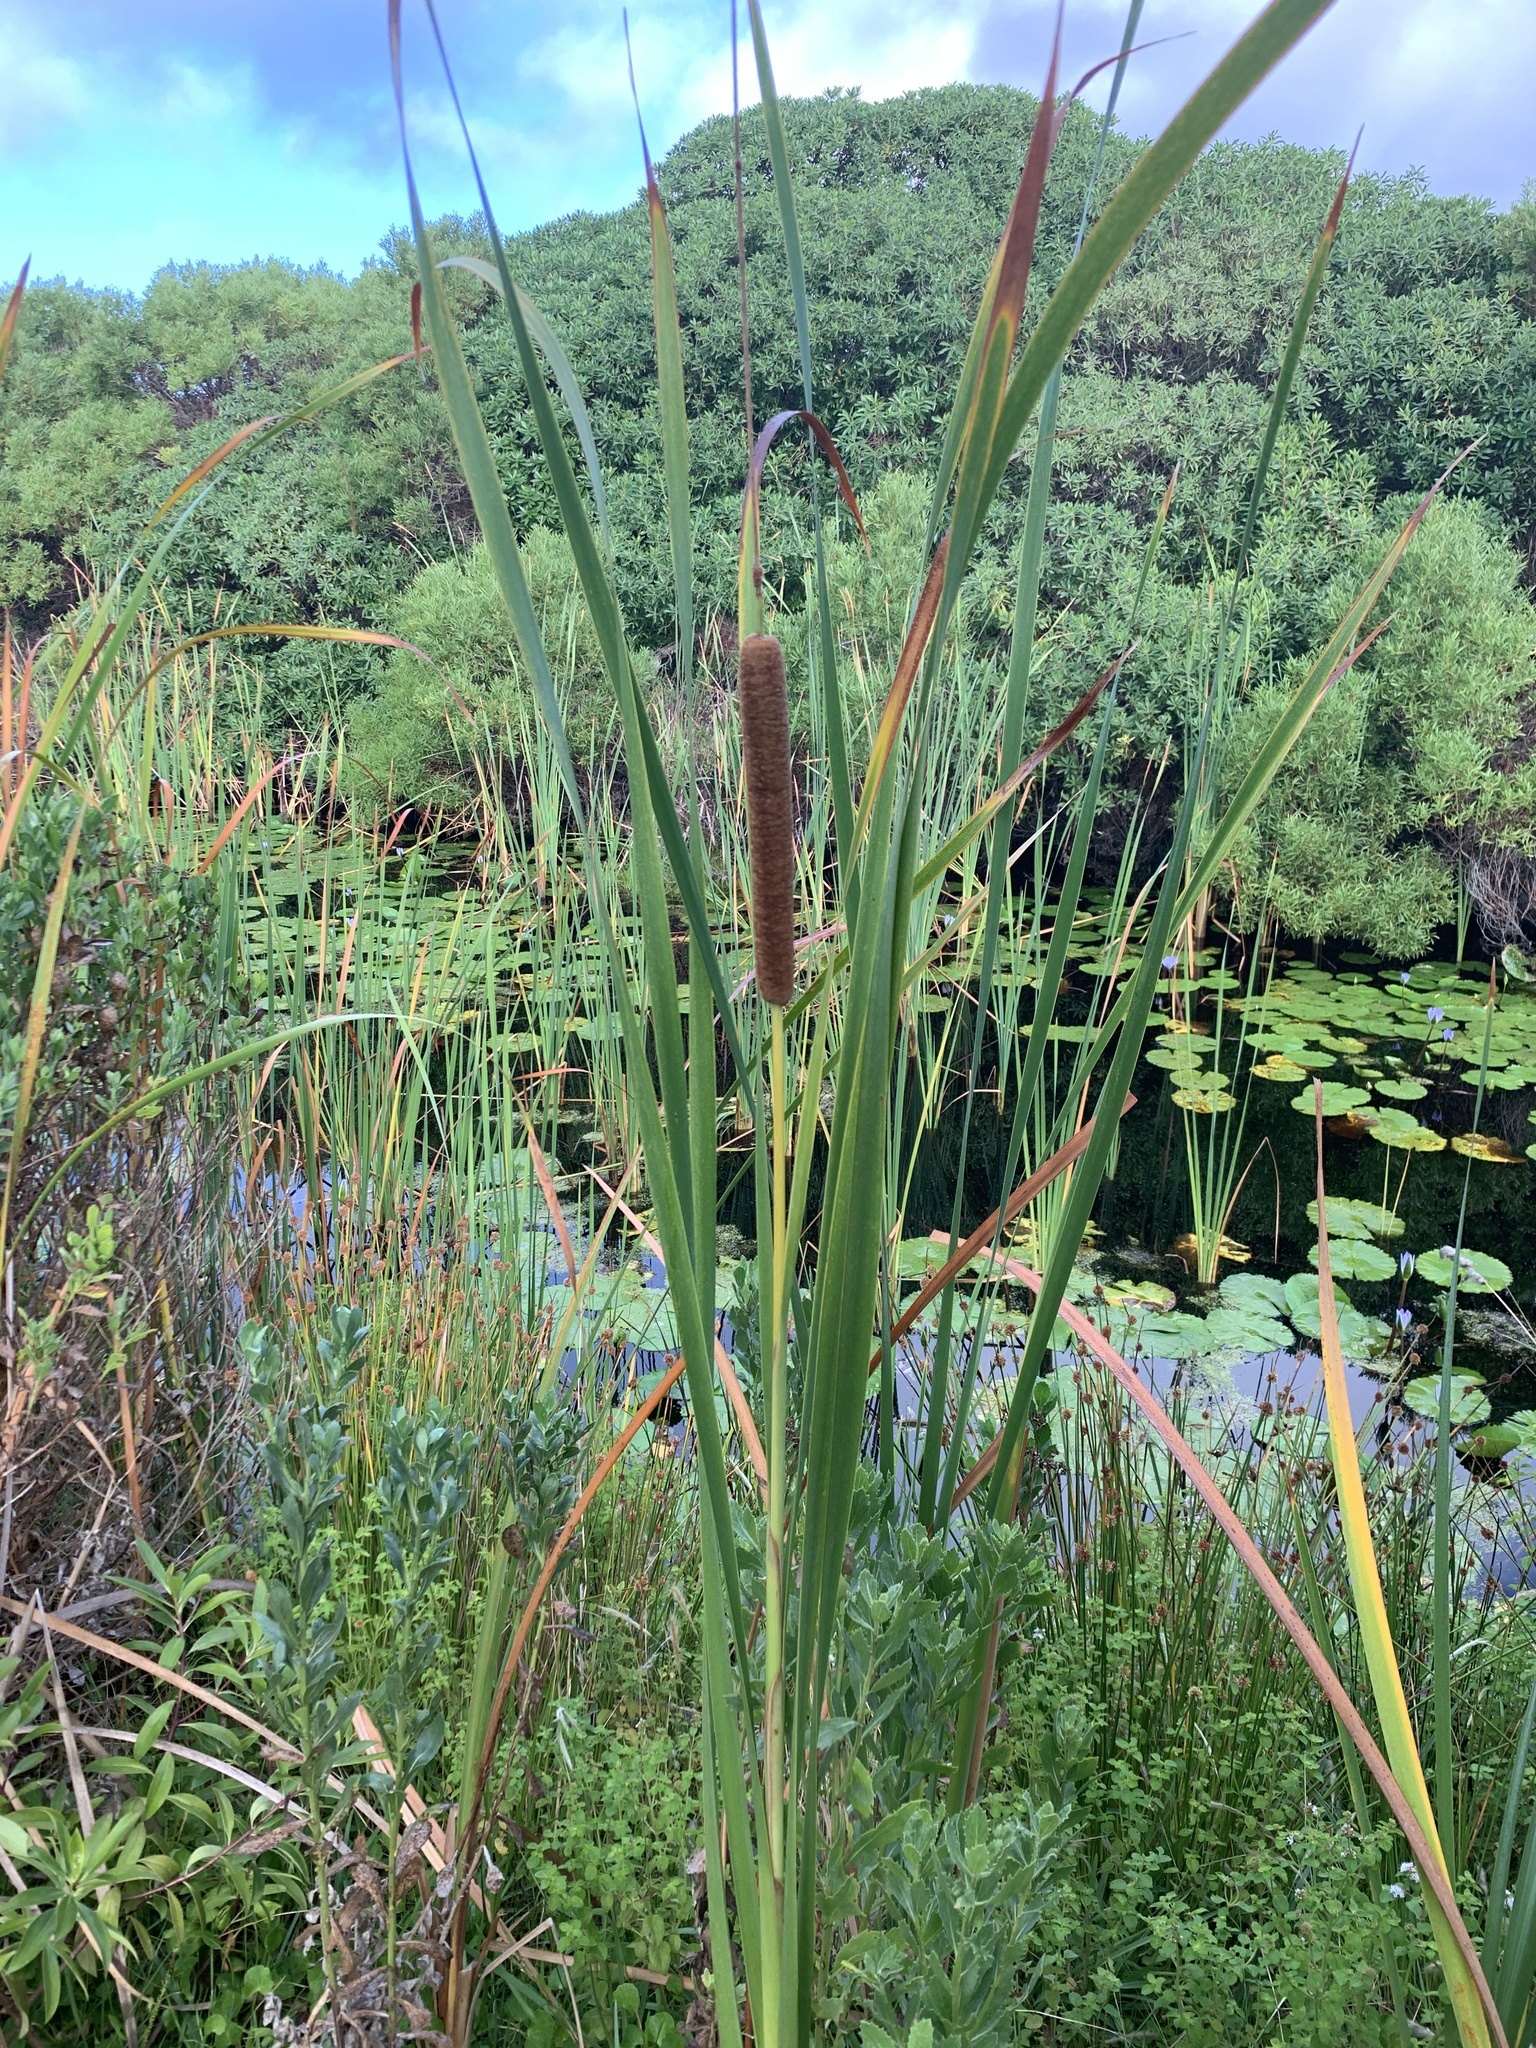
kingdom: Plantae
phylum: Tracheophyta
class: Liliopsida
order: Poales
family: Typhaceae
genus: Typha
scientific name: Typha capensis
